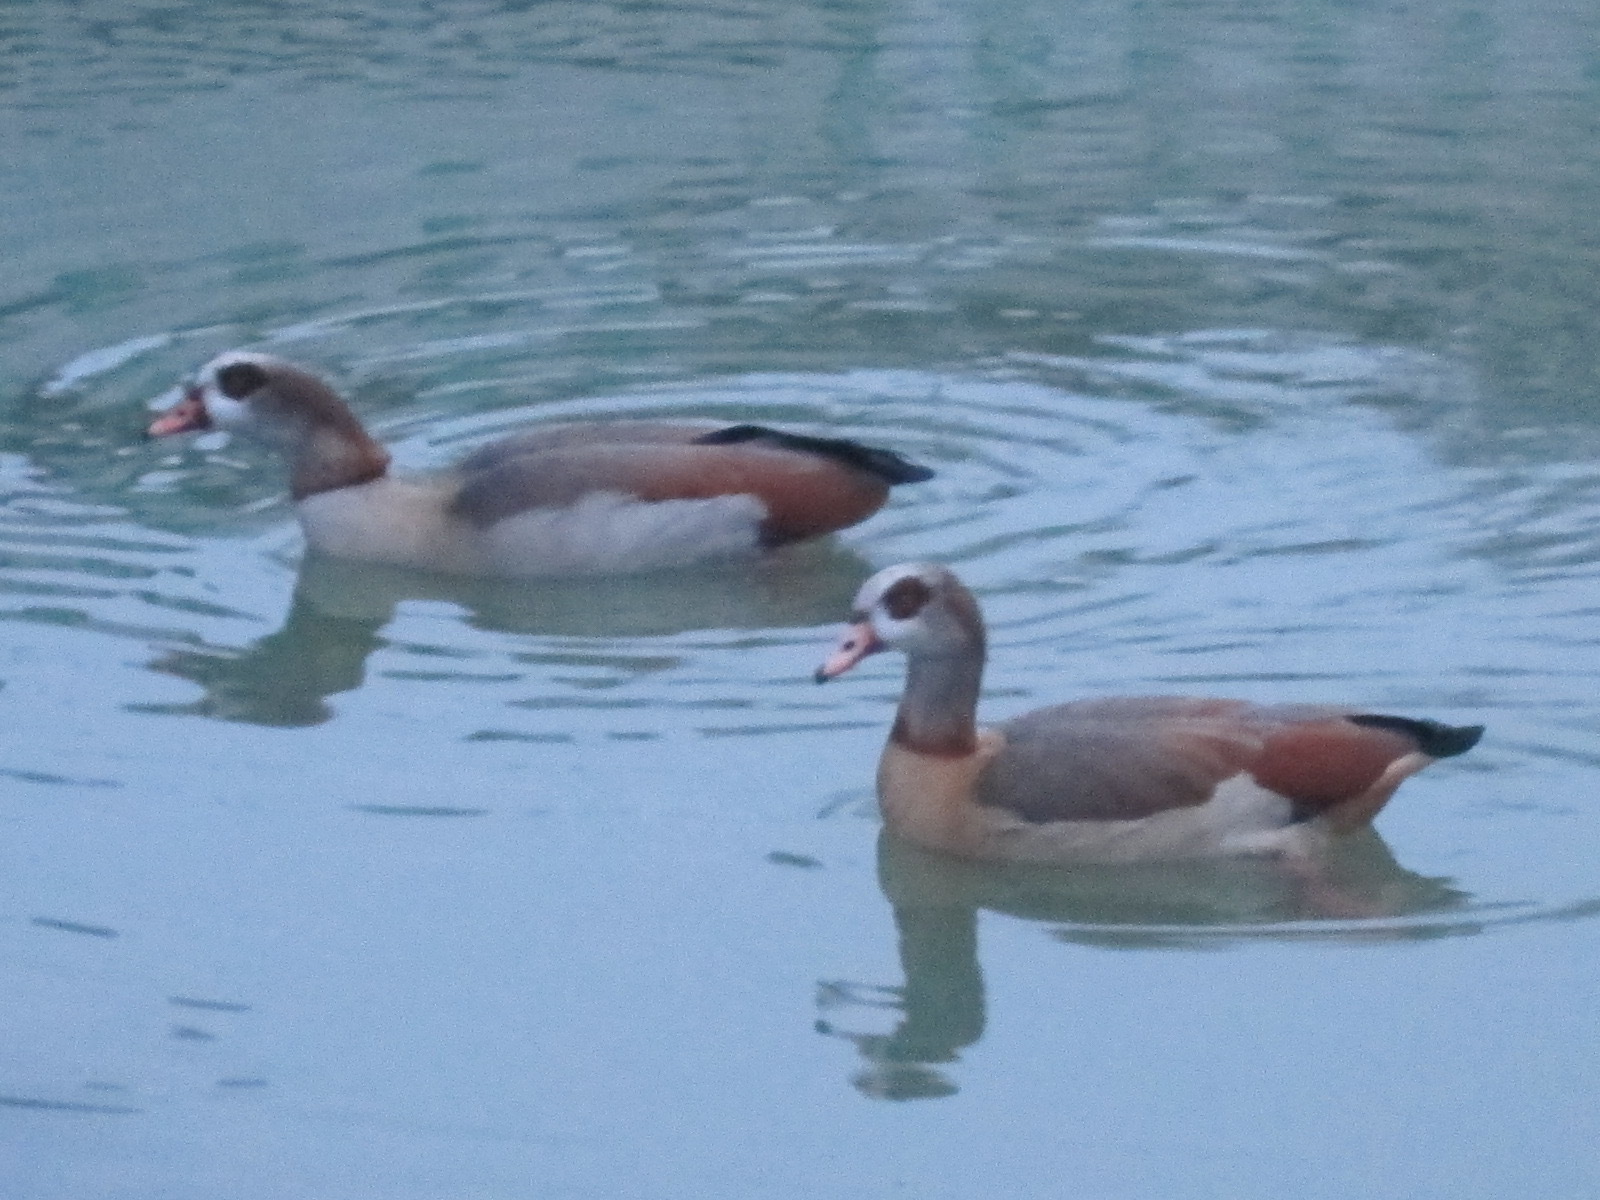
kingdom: Animalia
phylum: Chordata
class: Aves
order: Anseriformes
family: Anatidae
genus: Alopochen
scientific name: Alopochen aegyptiaca
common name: Egyptian goose
